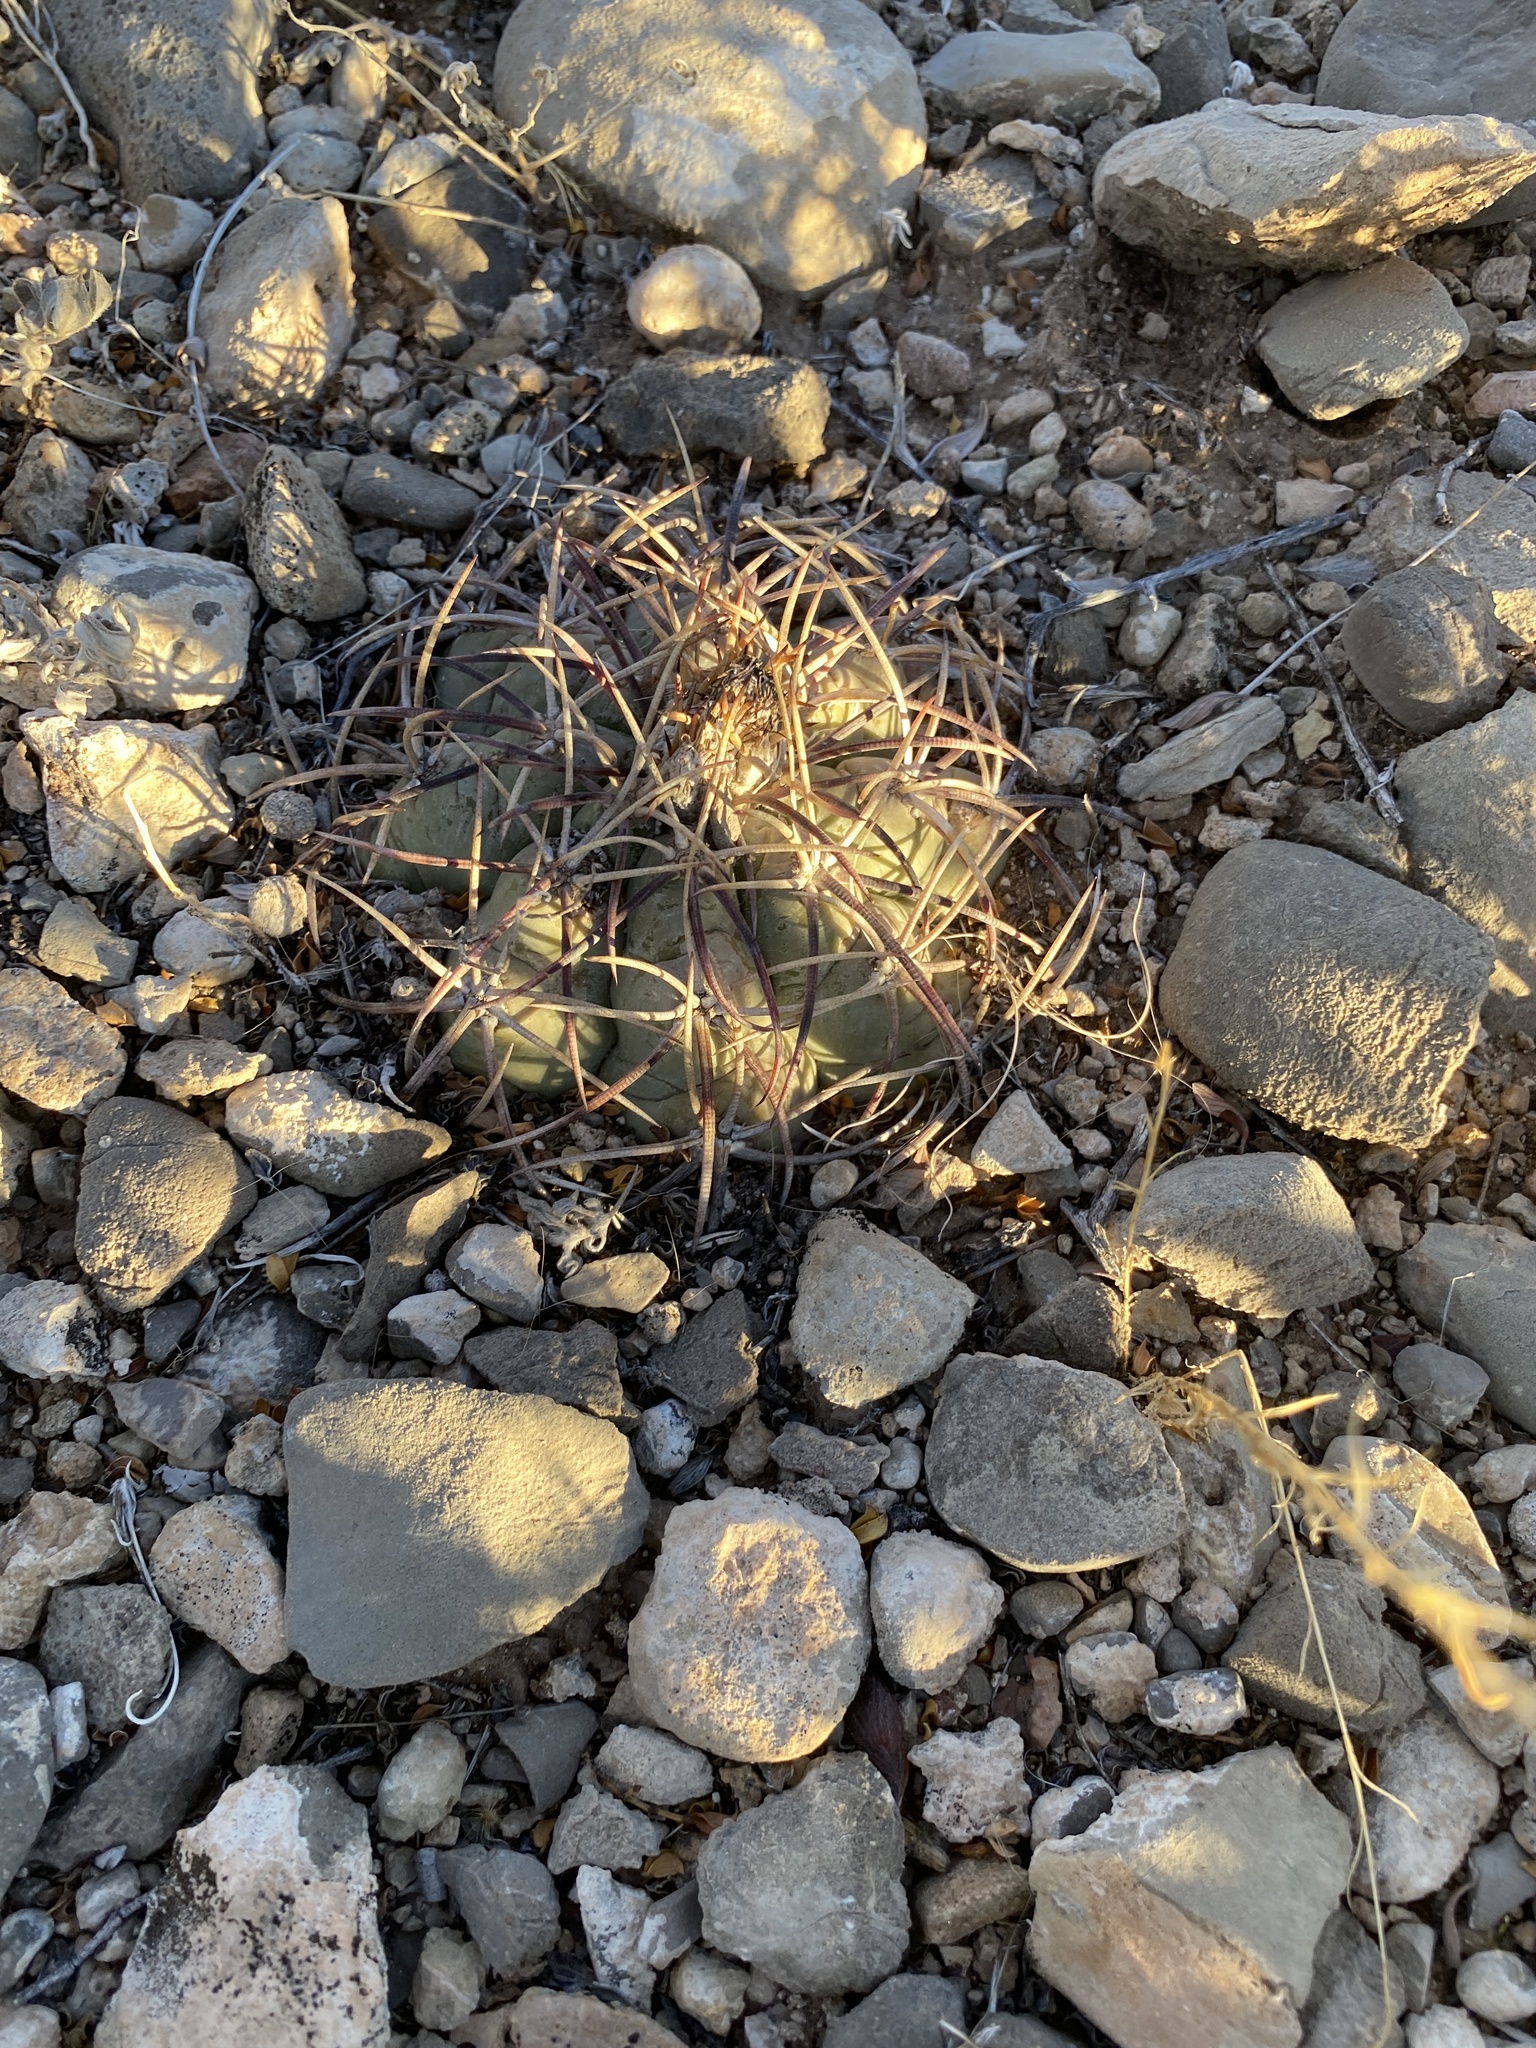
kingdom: Plantae
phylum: Tracheophyta
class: Magnoliopsida
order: Caryophyllales
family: Cactaceae
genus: Echinocactus
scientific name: Echinocactus horizonthalonius
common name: Devilshead
